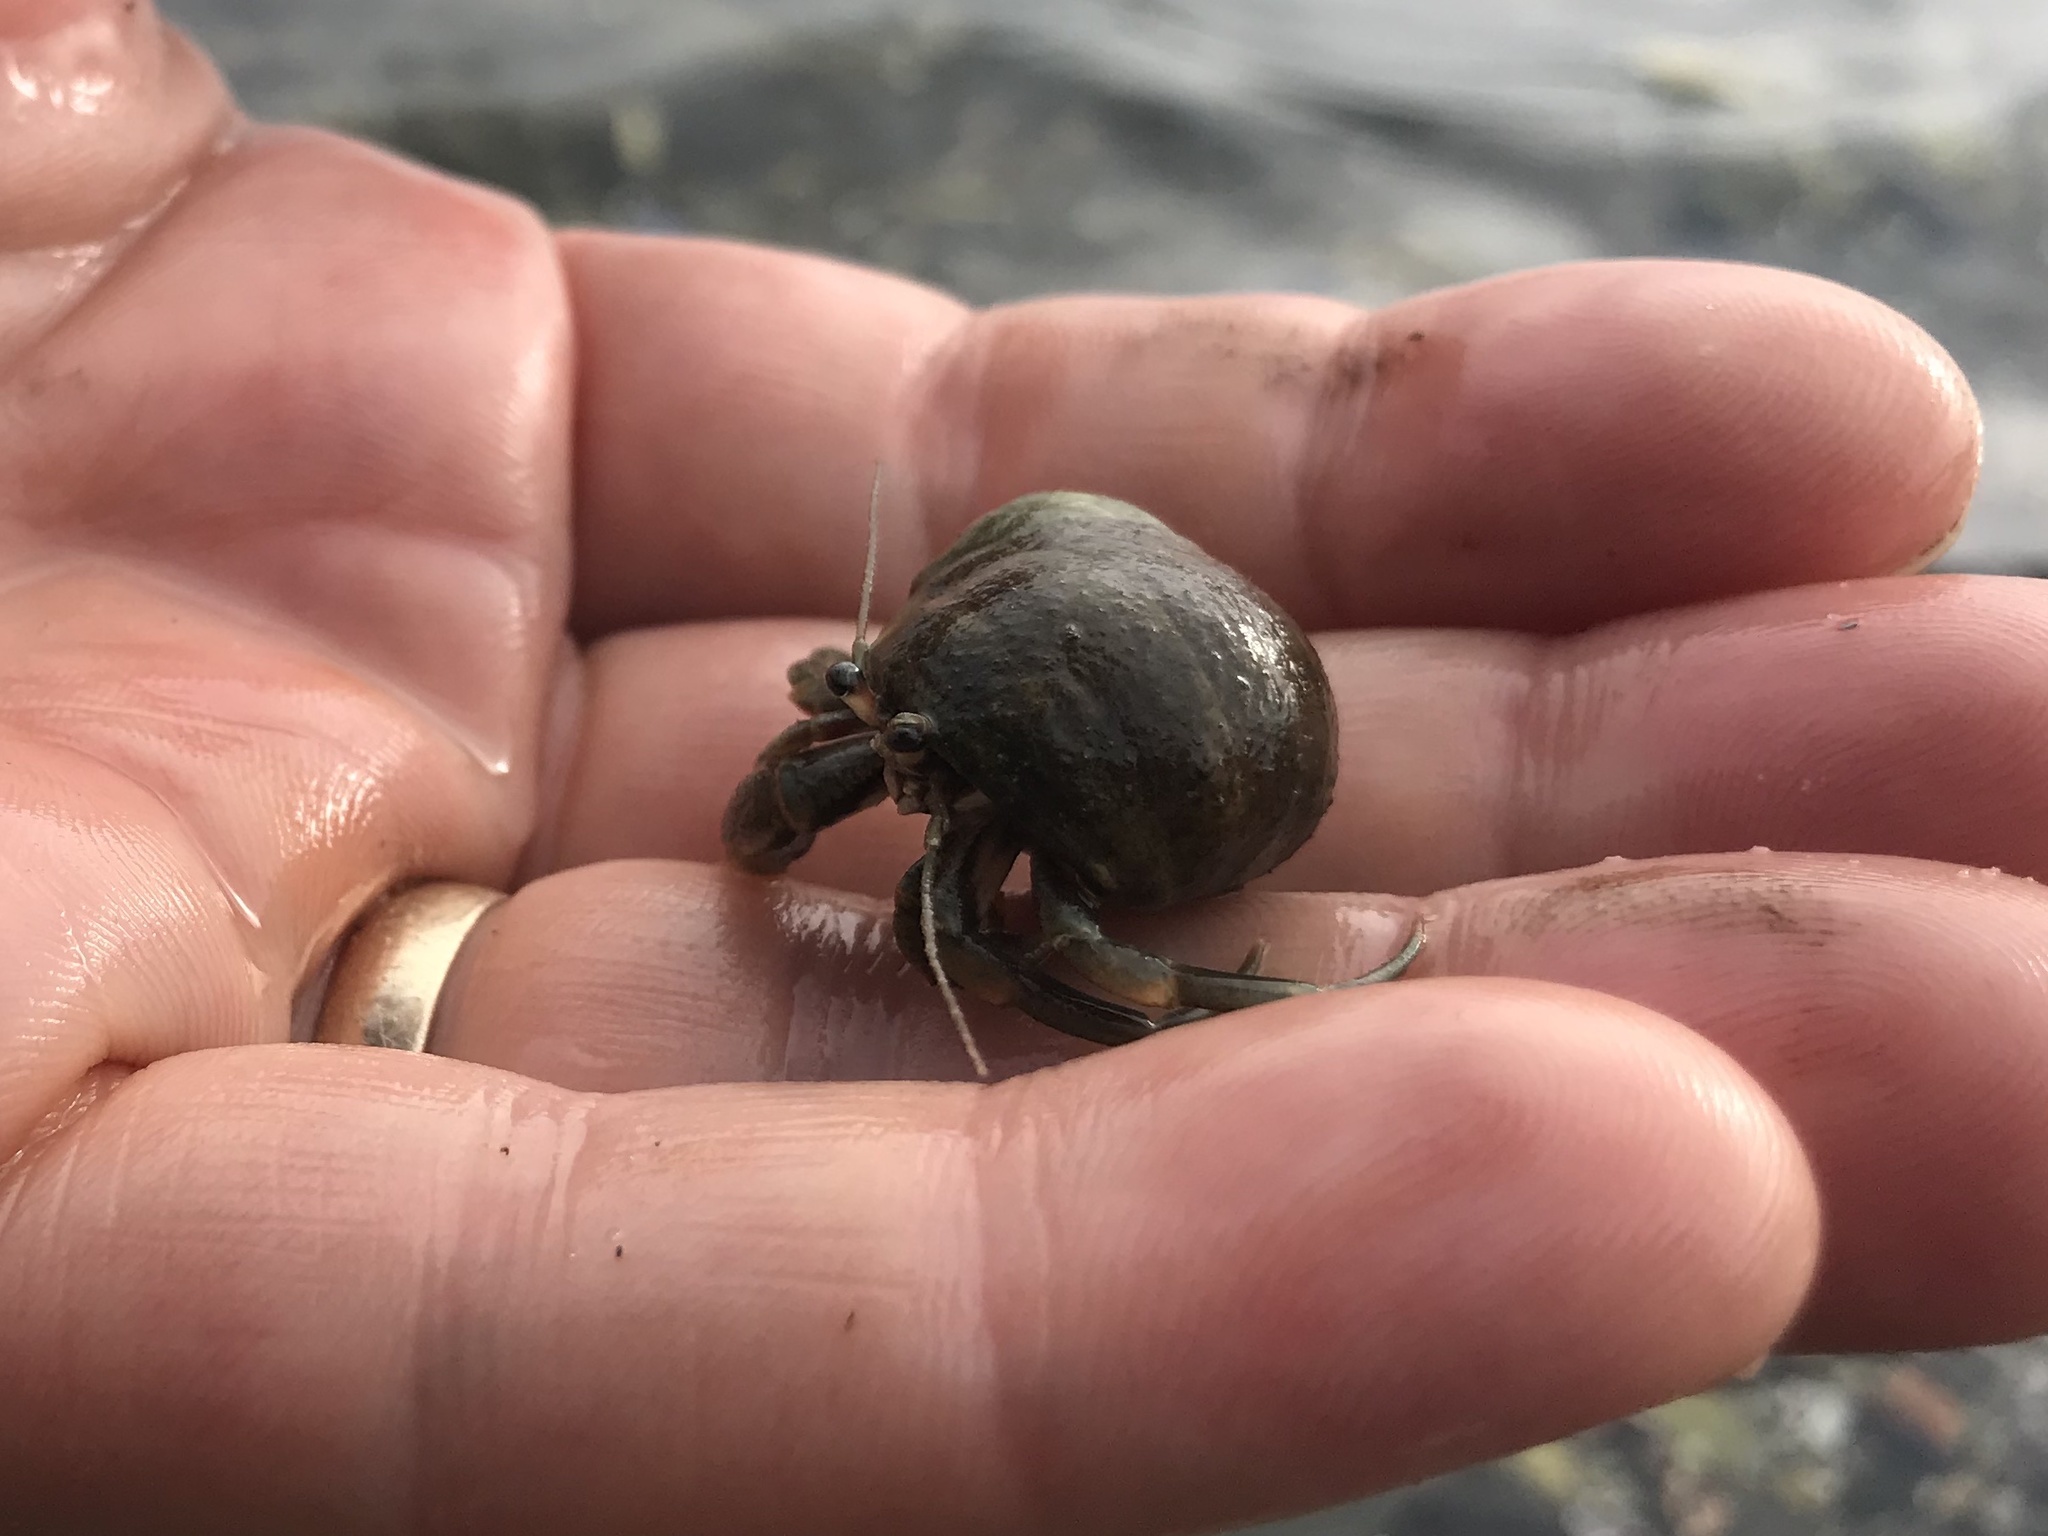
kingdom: Animalia
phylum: Arthropoda
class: Malacostraca
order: Decapoda
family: Paguridae
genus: Pagurus
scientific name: Pagurus longicarpus
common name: Long-armed hermit crab
